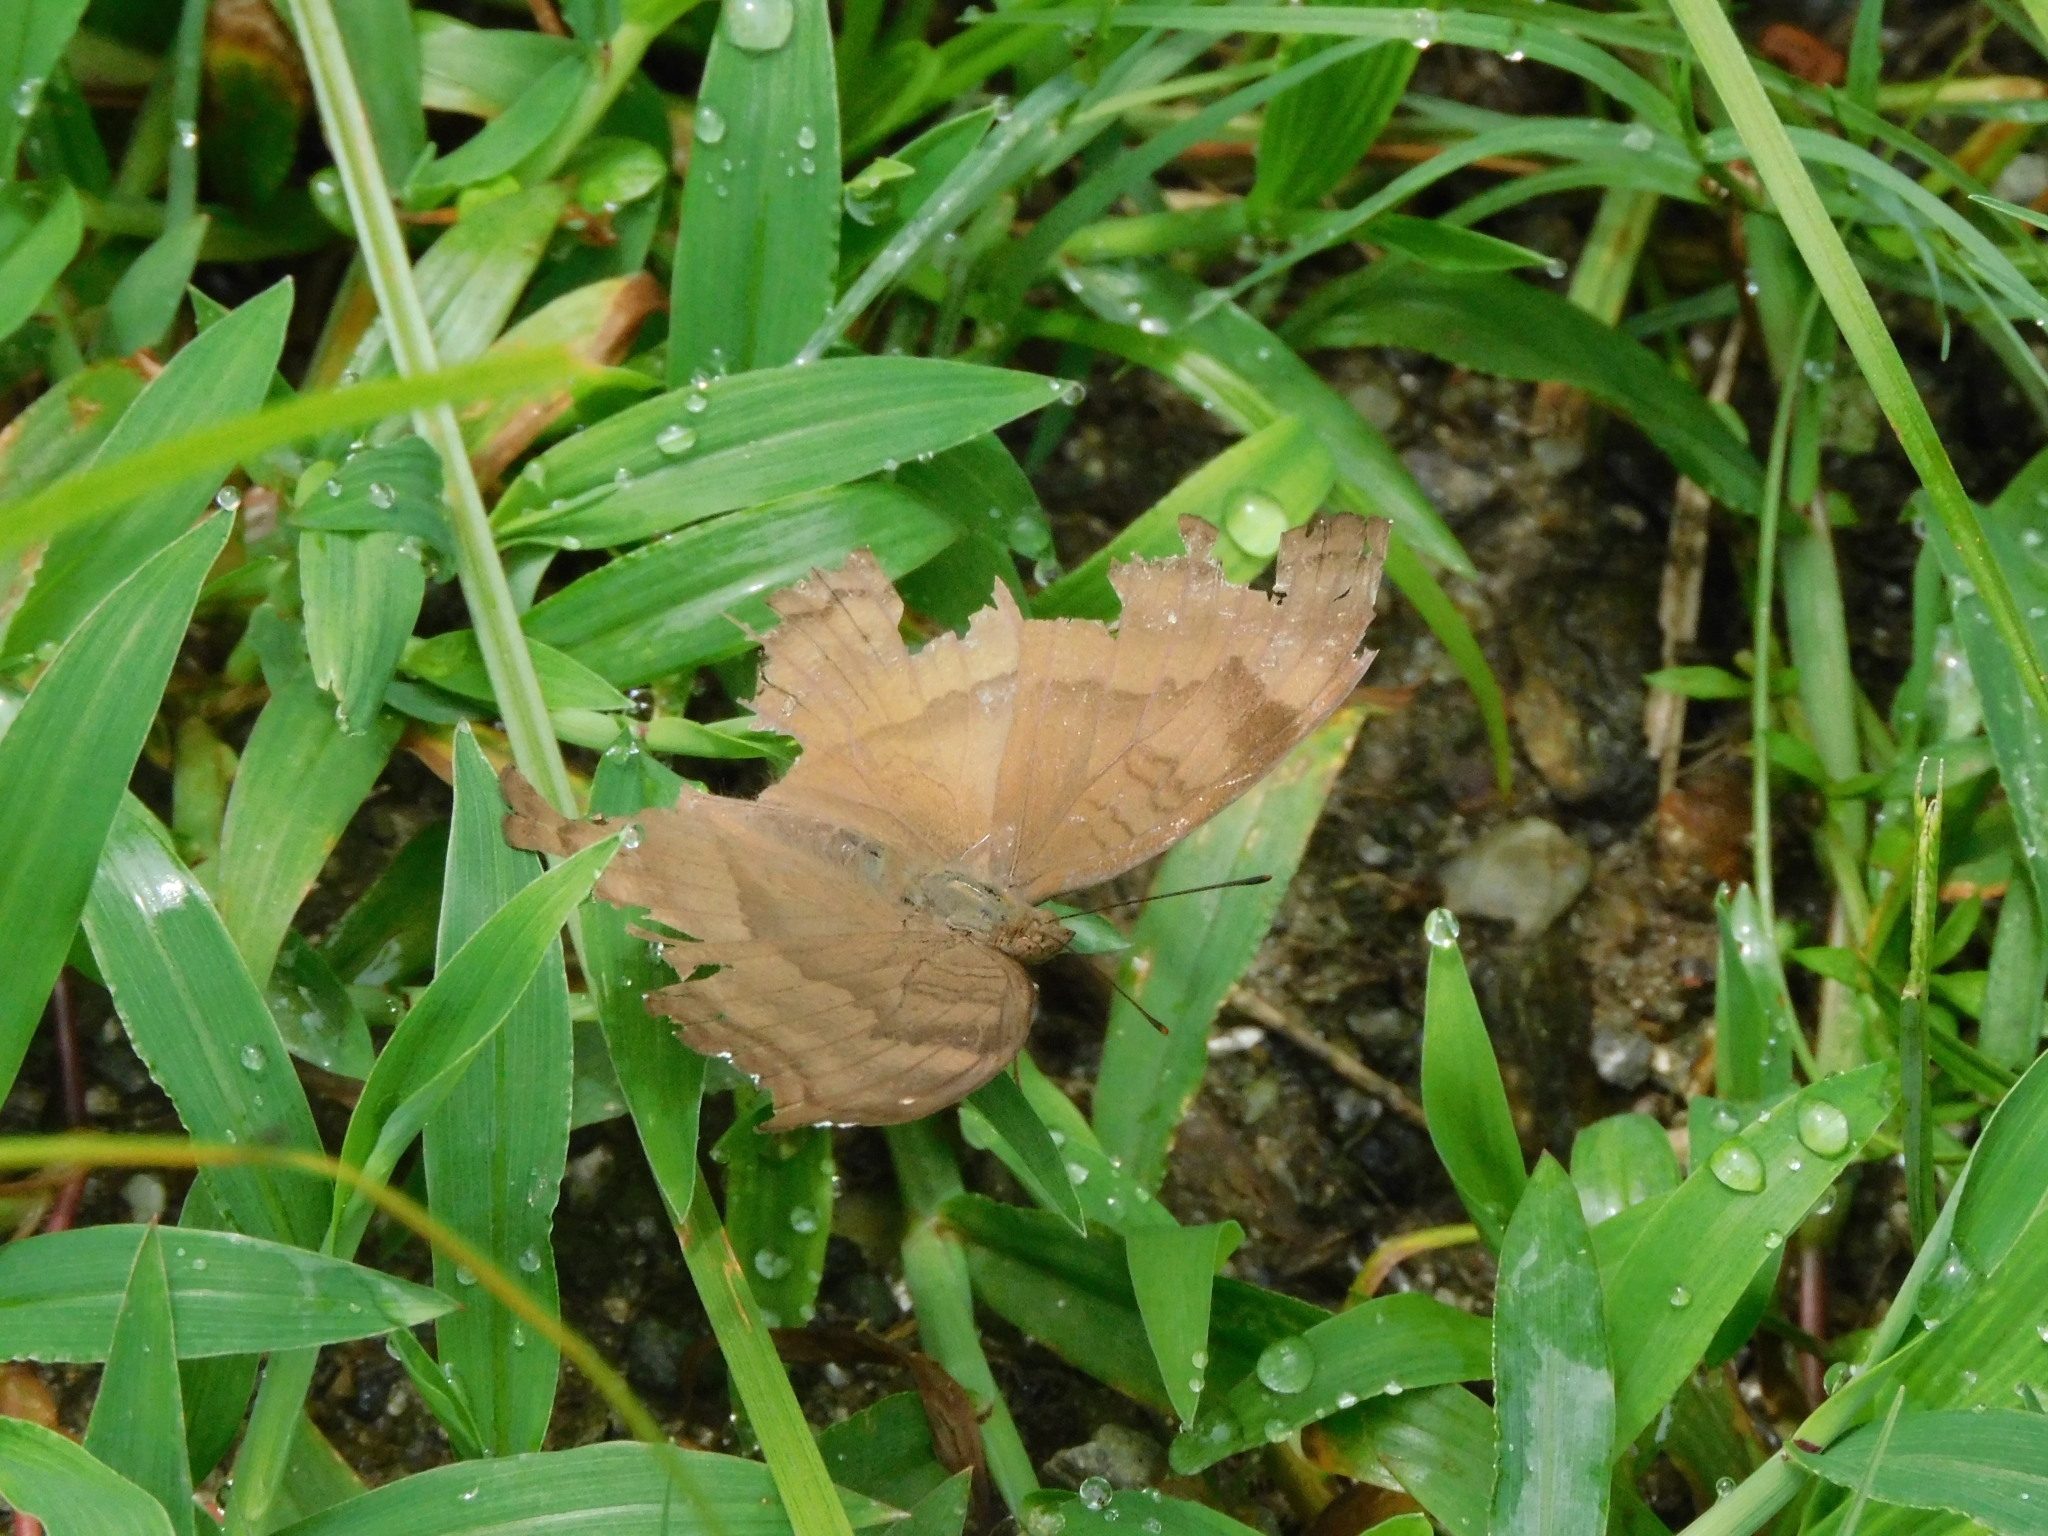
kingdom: Animalia
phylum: Arthropoda
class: Insecta
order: Lepidoptera
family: Nymphalidae
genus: Junonia
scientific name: Junonia iphita
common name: Chocolate pansy
